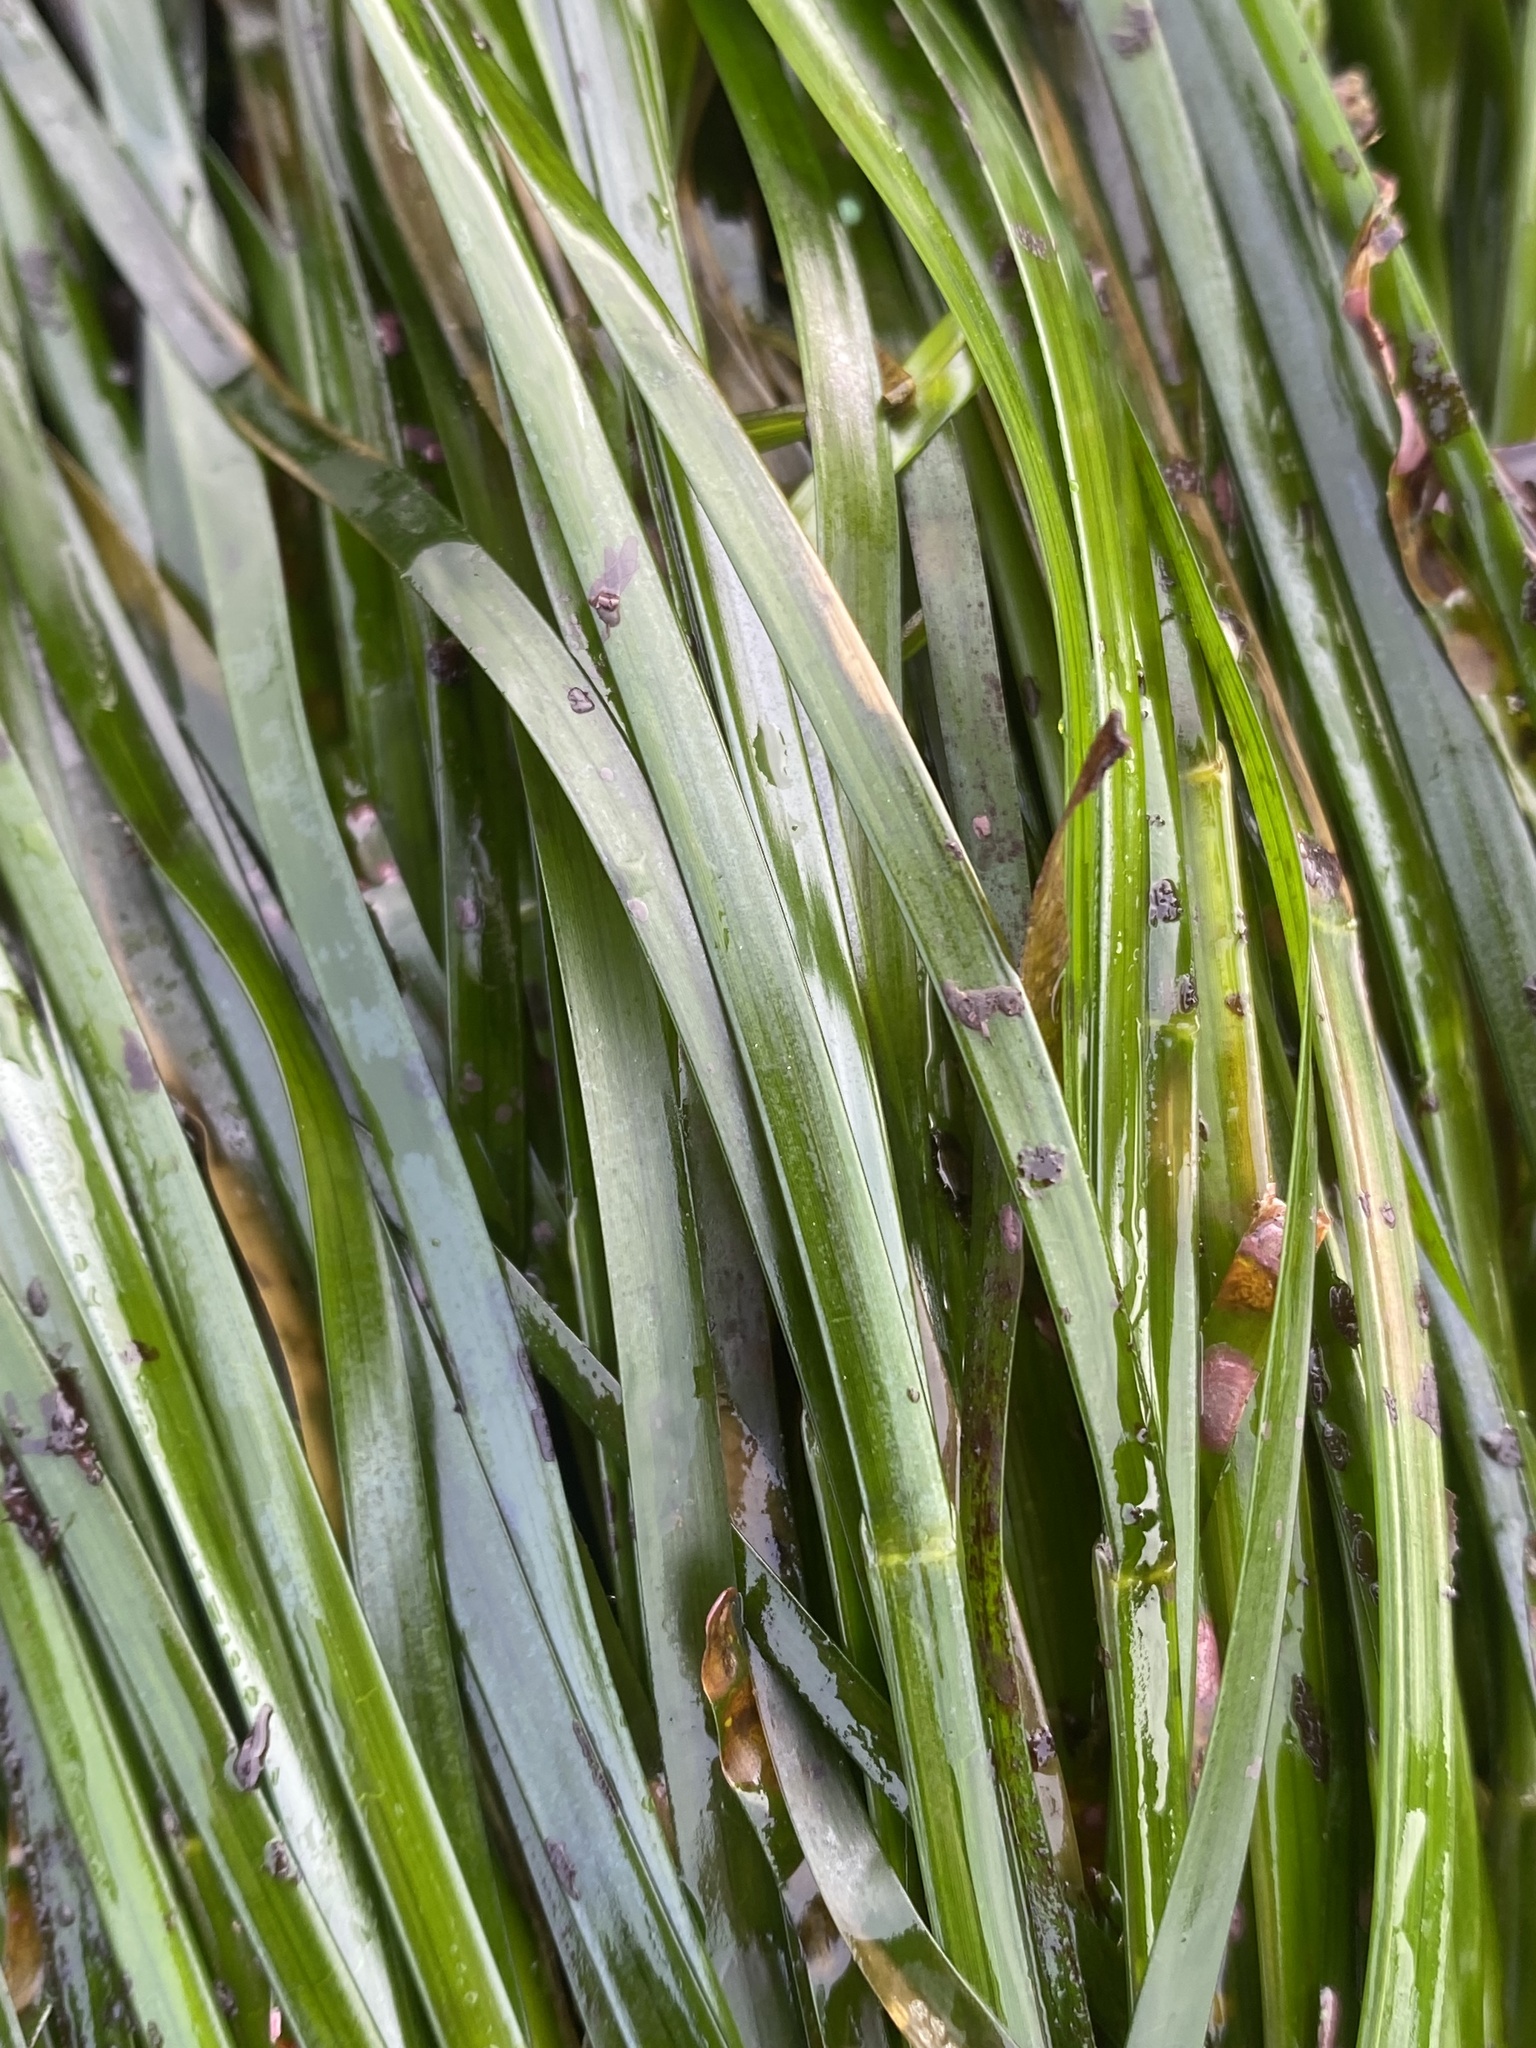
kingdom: Plantae
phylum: Tracheophyta
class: Liliopsida
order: Alismatales
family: Zosteraceae
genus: Phyllospadix
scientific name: Phyllospadix scouleri
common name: Species code: ps
